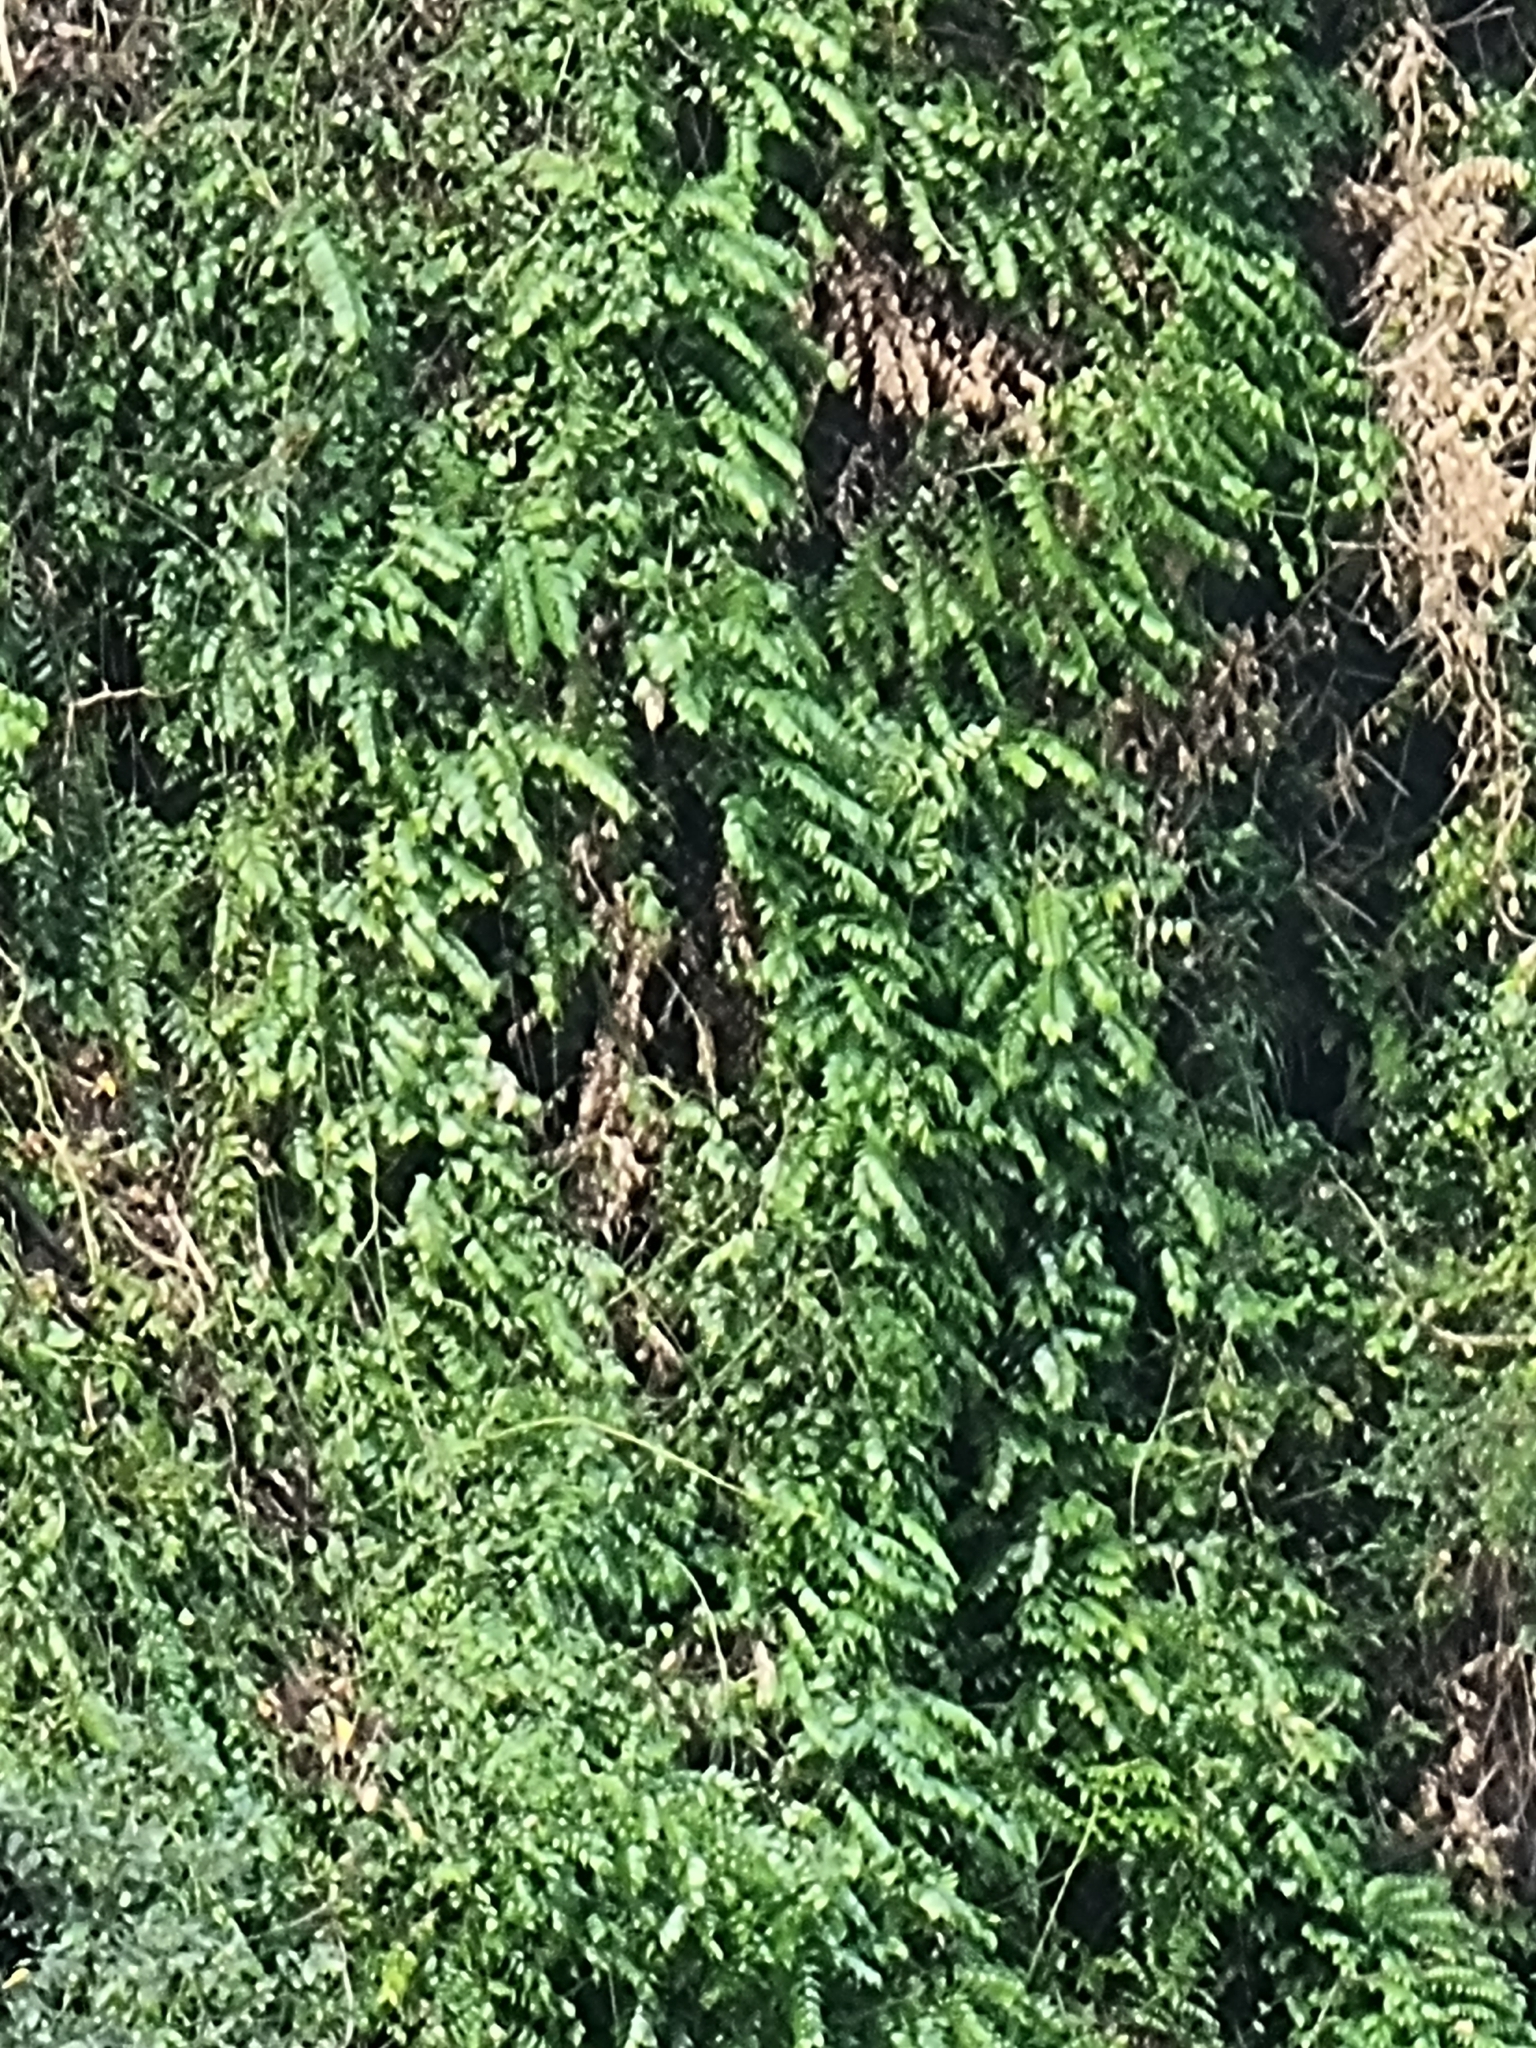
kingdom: Plantae
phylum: Tracheophyta
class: Liliopsida
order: Asparagales
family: Asparagaceae
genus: Semele
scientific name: Semele androgyna
